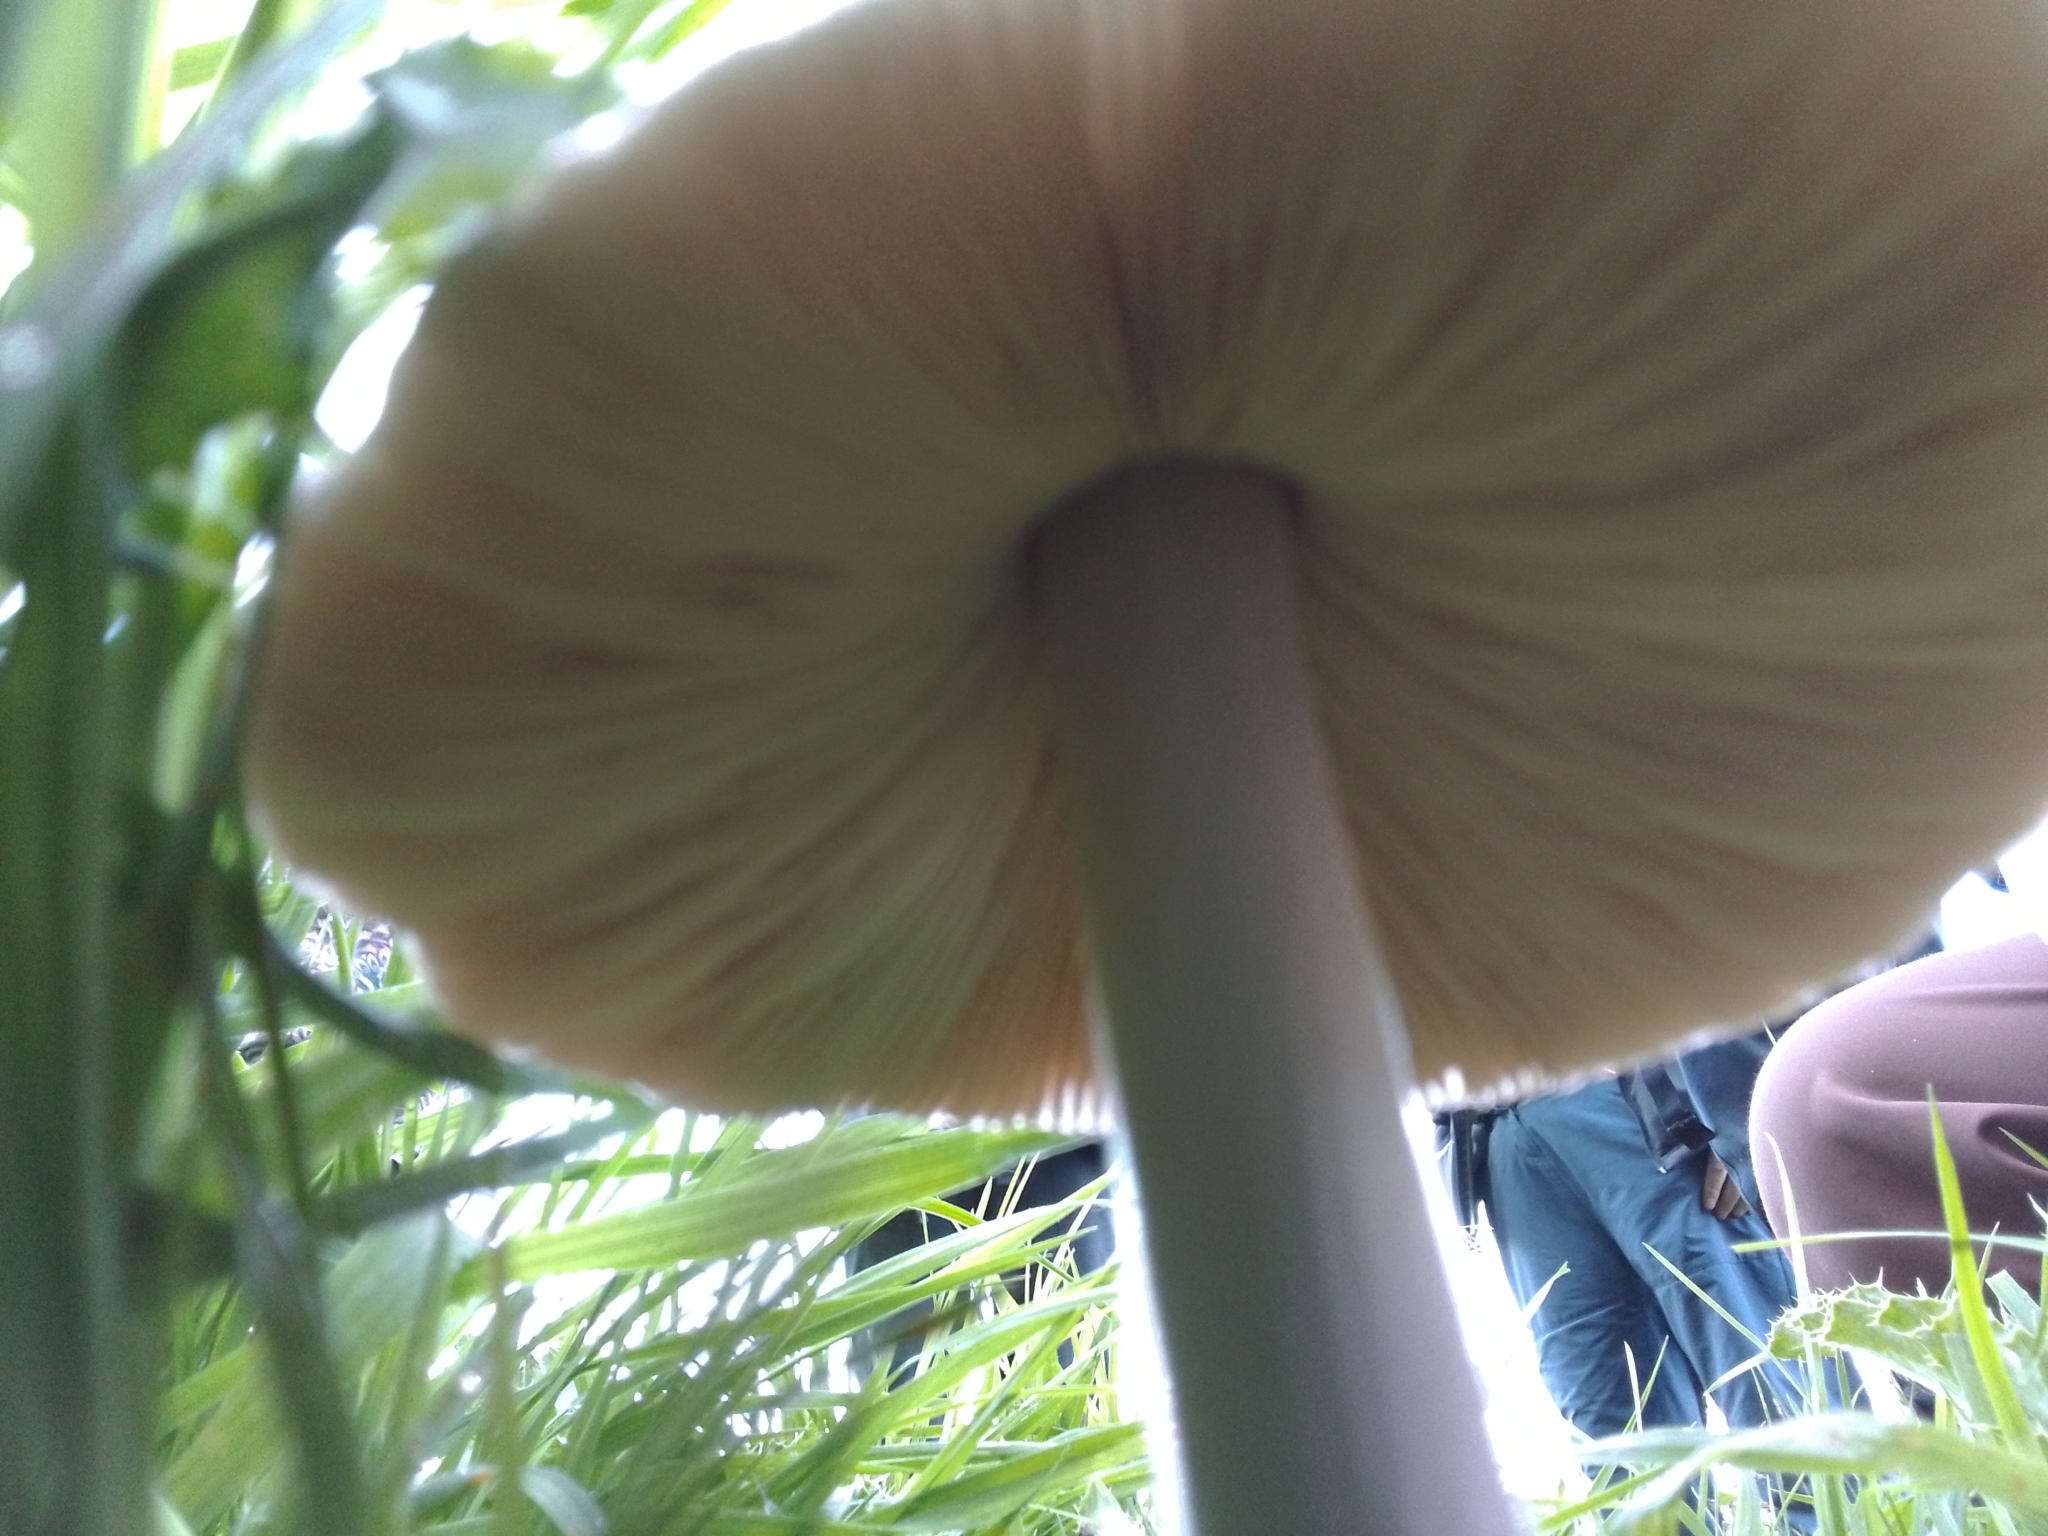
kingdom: Fungi
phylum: Basidiomycota
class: Agaricomycetes
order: Agaricales
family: Pluteaceae
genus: Volvopluteus
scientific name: Volvopluteus gloiocephalus
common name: Stubble rosegill
